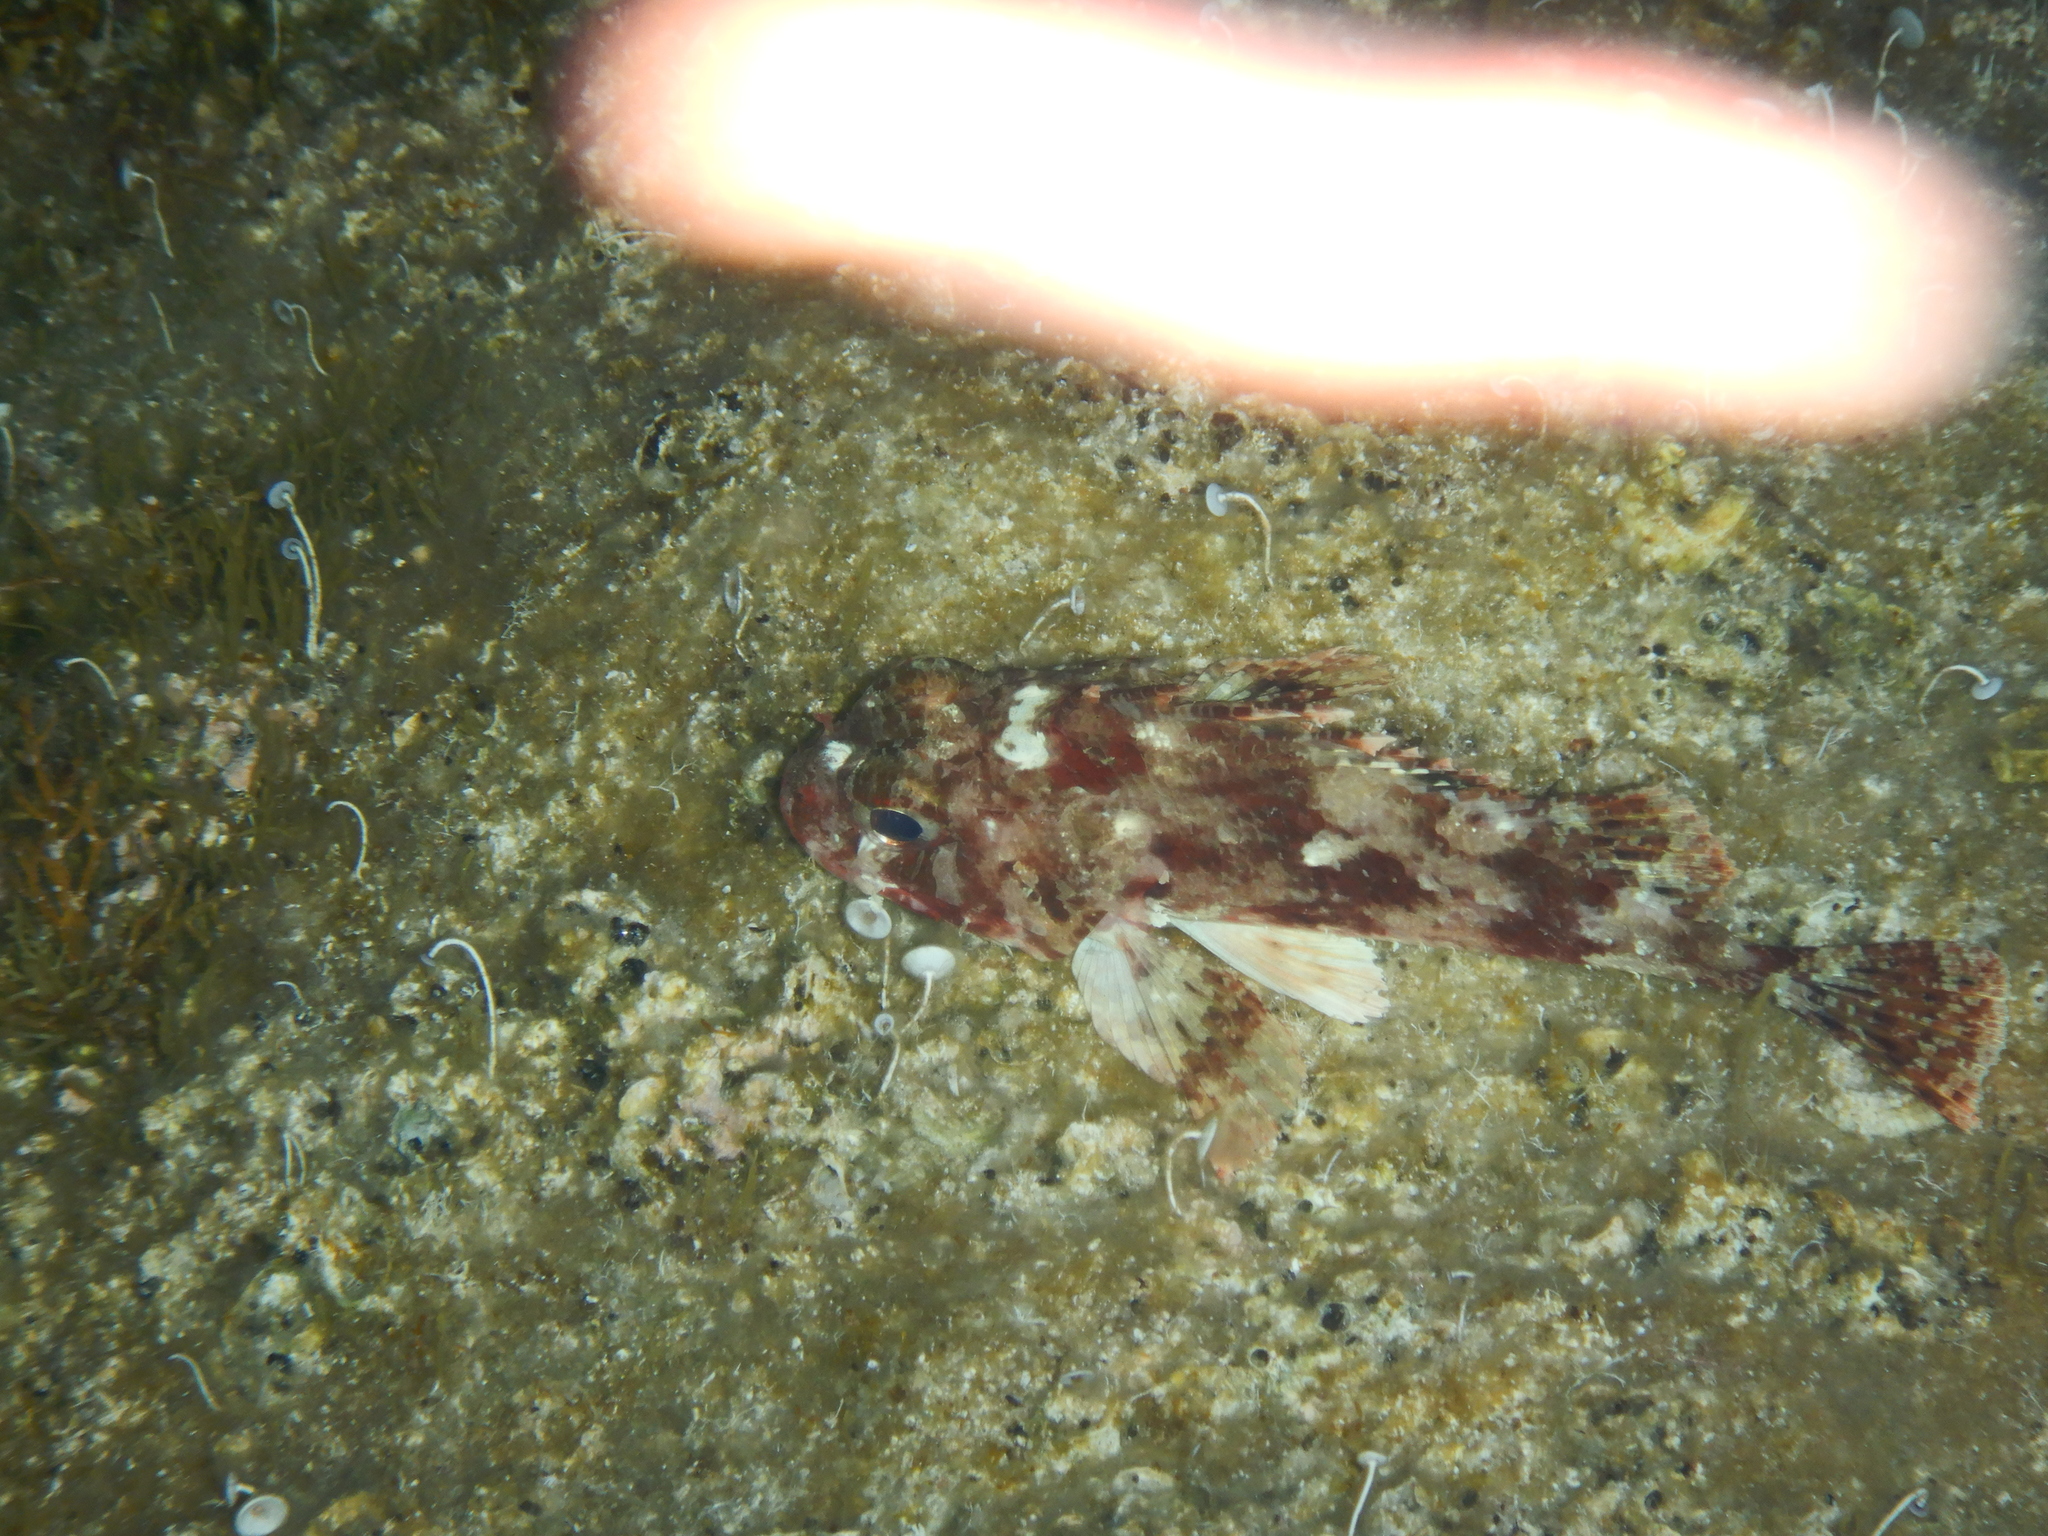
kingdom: Animalia
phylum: Chordata
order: Scorpaeniformes
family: Scorpaenidae
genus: Scorpaena
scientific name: Scorpaena notata
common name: Small red scorpionfish
